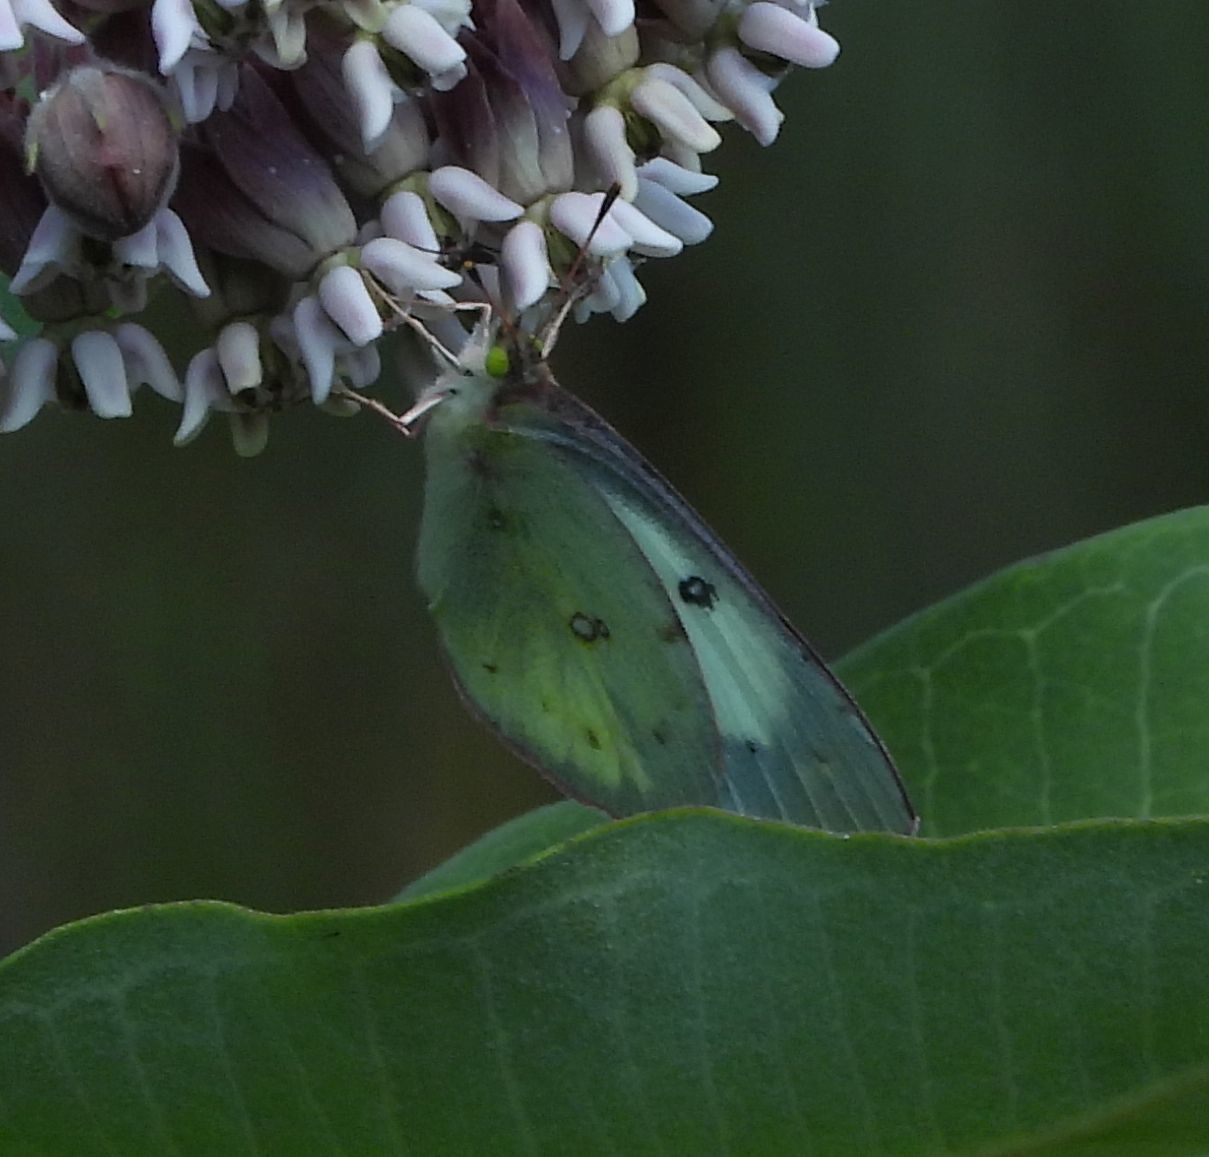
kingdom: Animalia
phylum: Arthropoda
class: Insecta
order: Lepidoptera
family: Pieridae
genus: Colias
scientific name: Colias philodice
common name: Clouded sulphur
